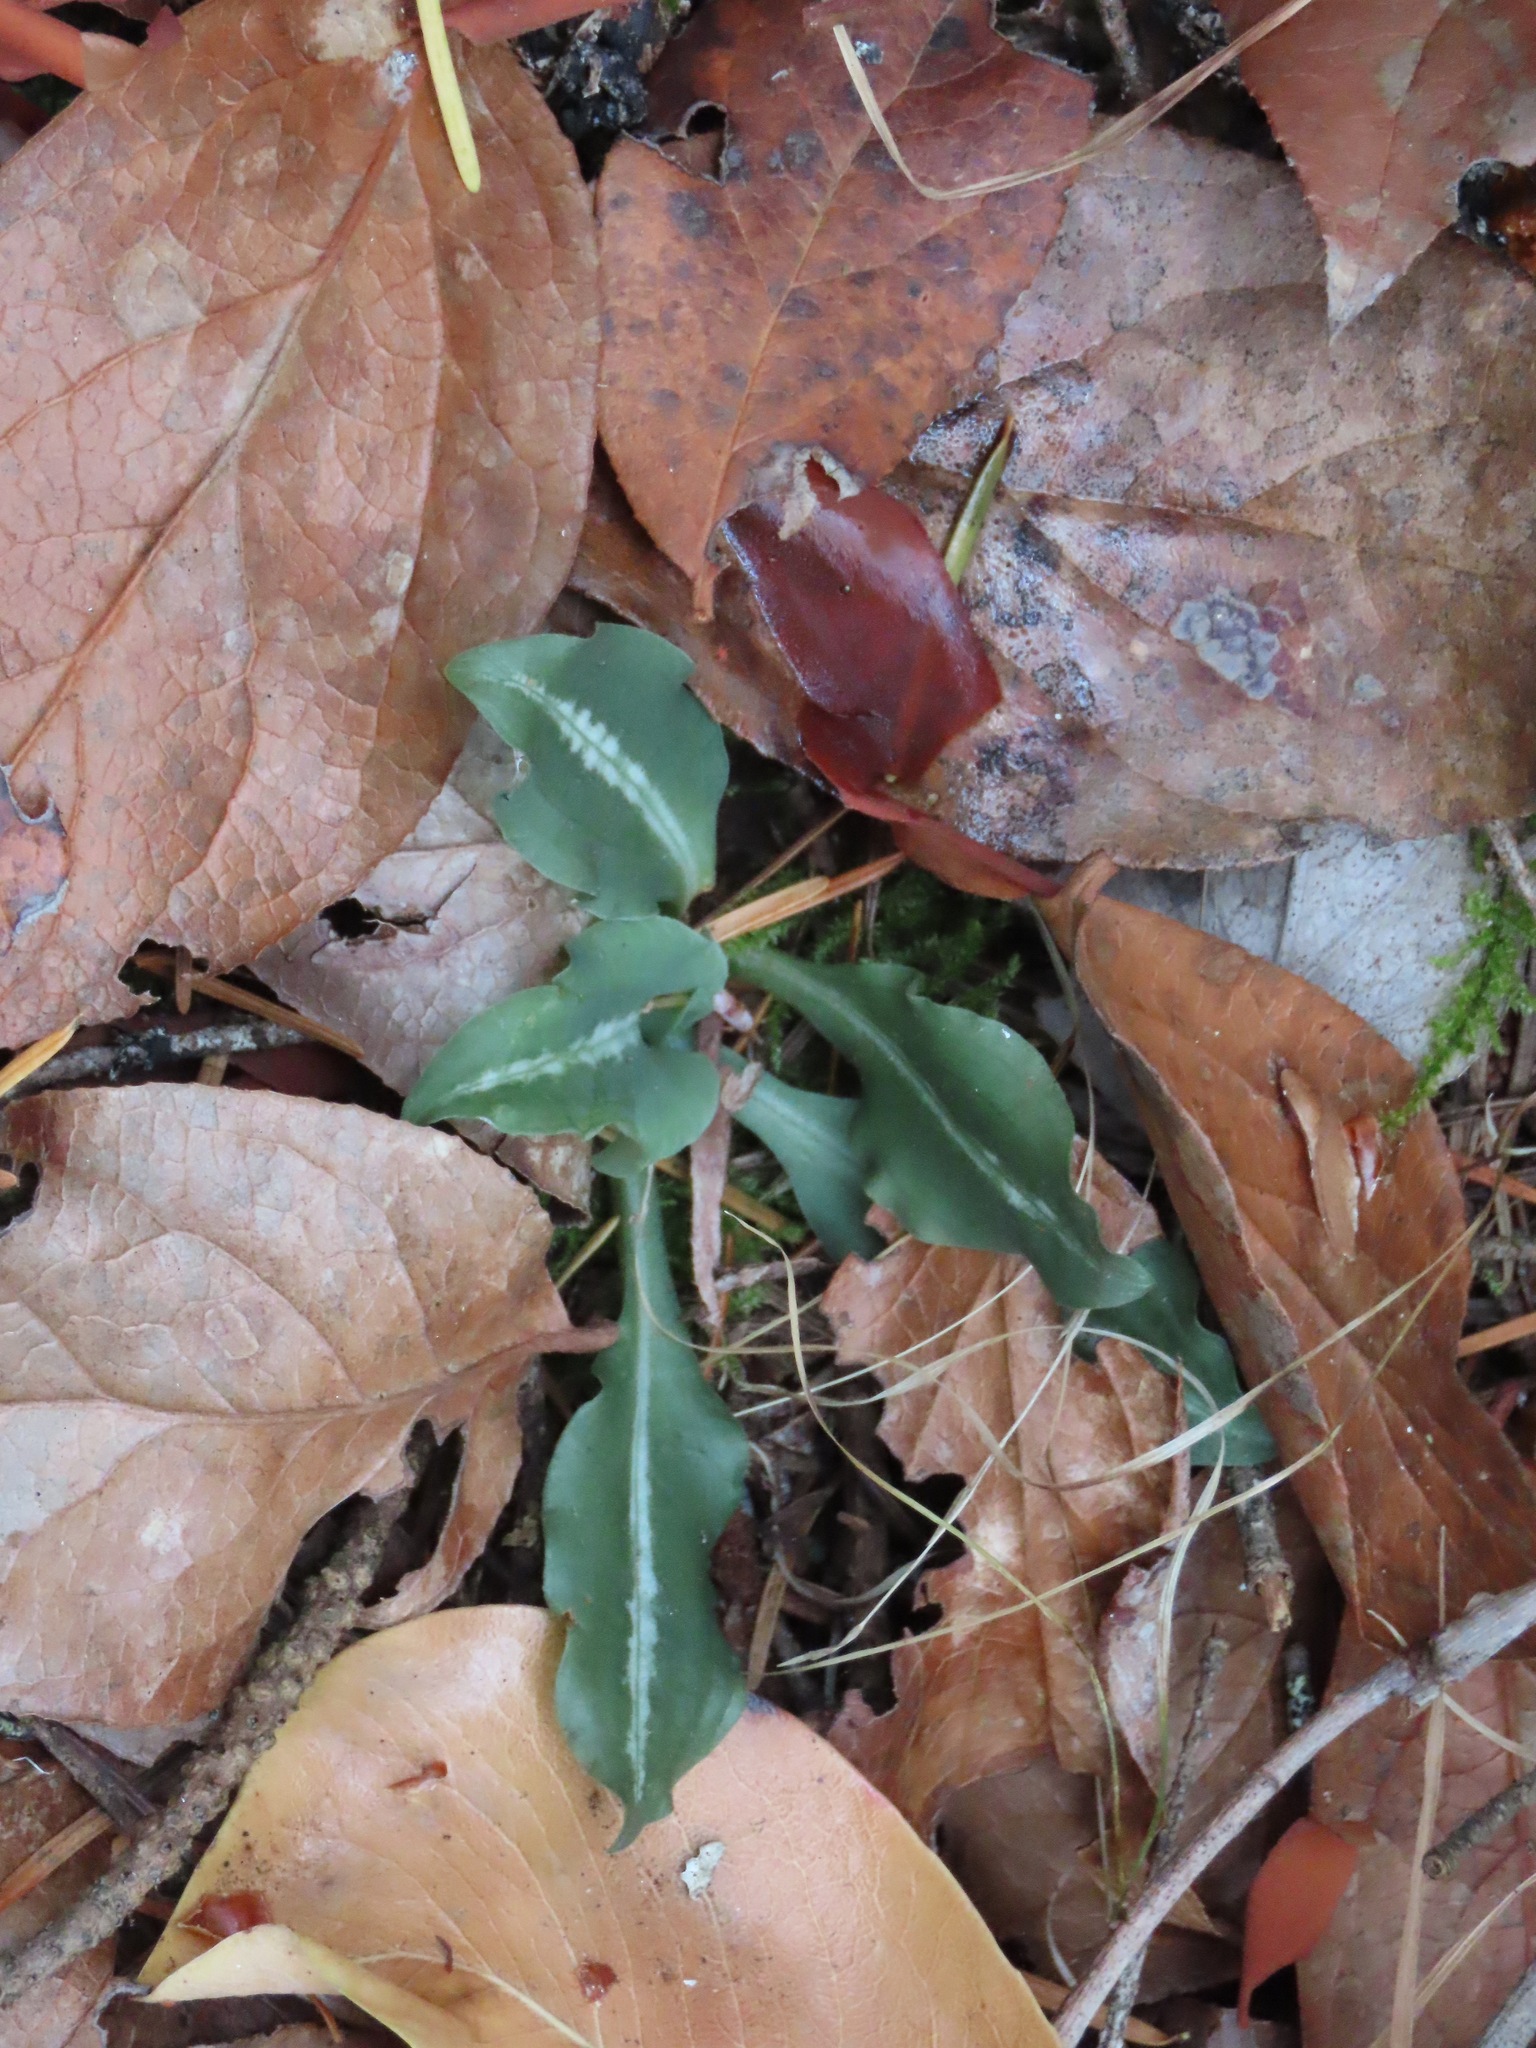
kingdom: Plantae
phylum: Tracheophyta
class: Liliopsida
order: Asparagales
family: Orchidaceae
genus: Goodyera
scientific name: Goodyera oblongifolia
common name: Giant rattlesnake-plantain
